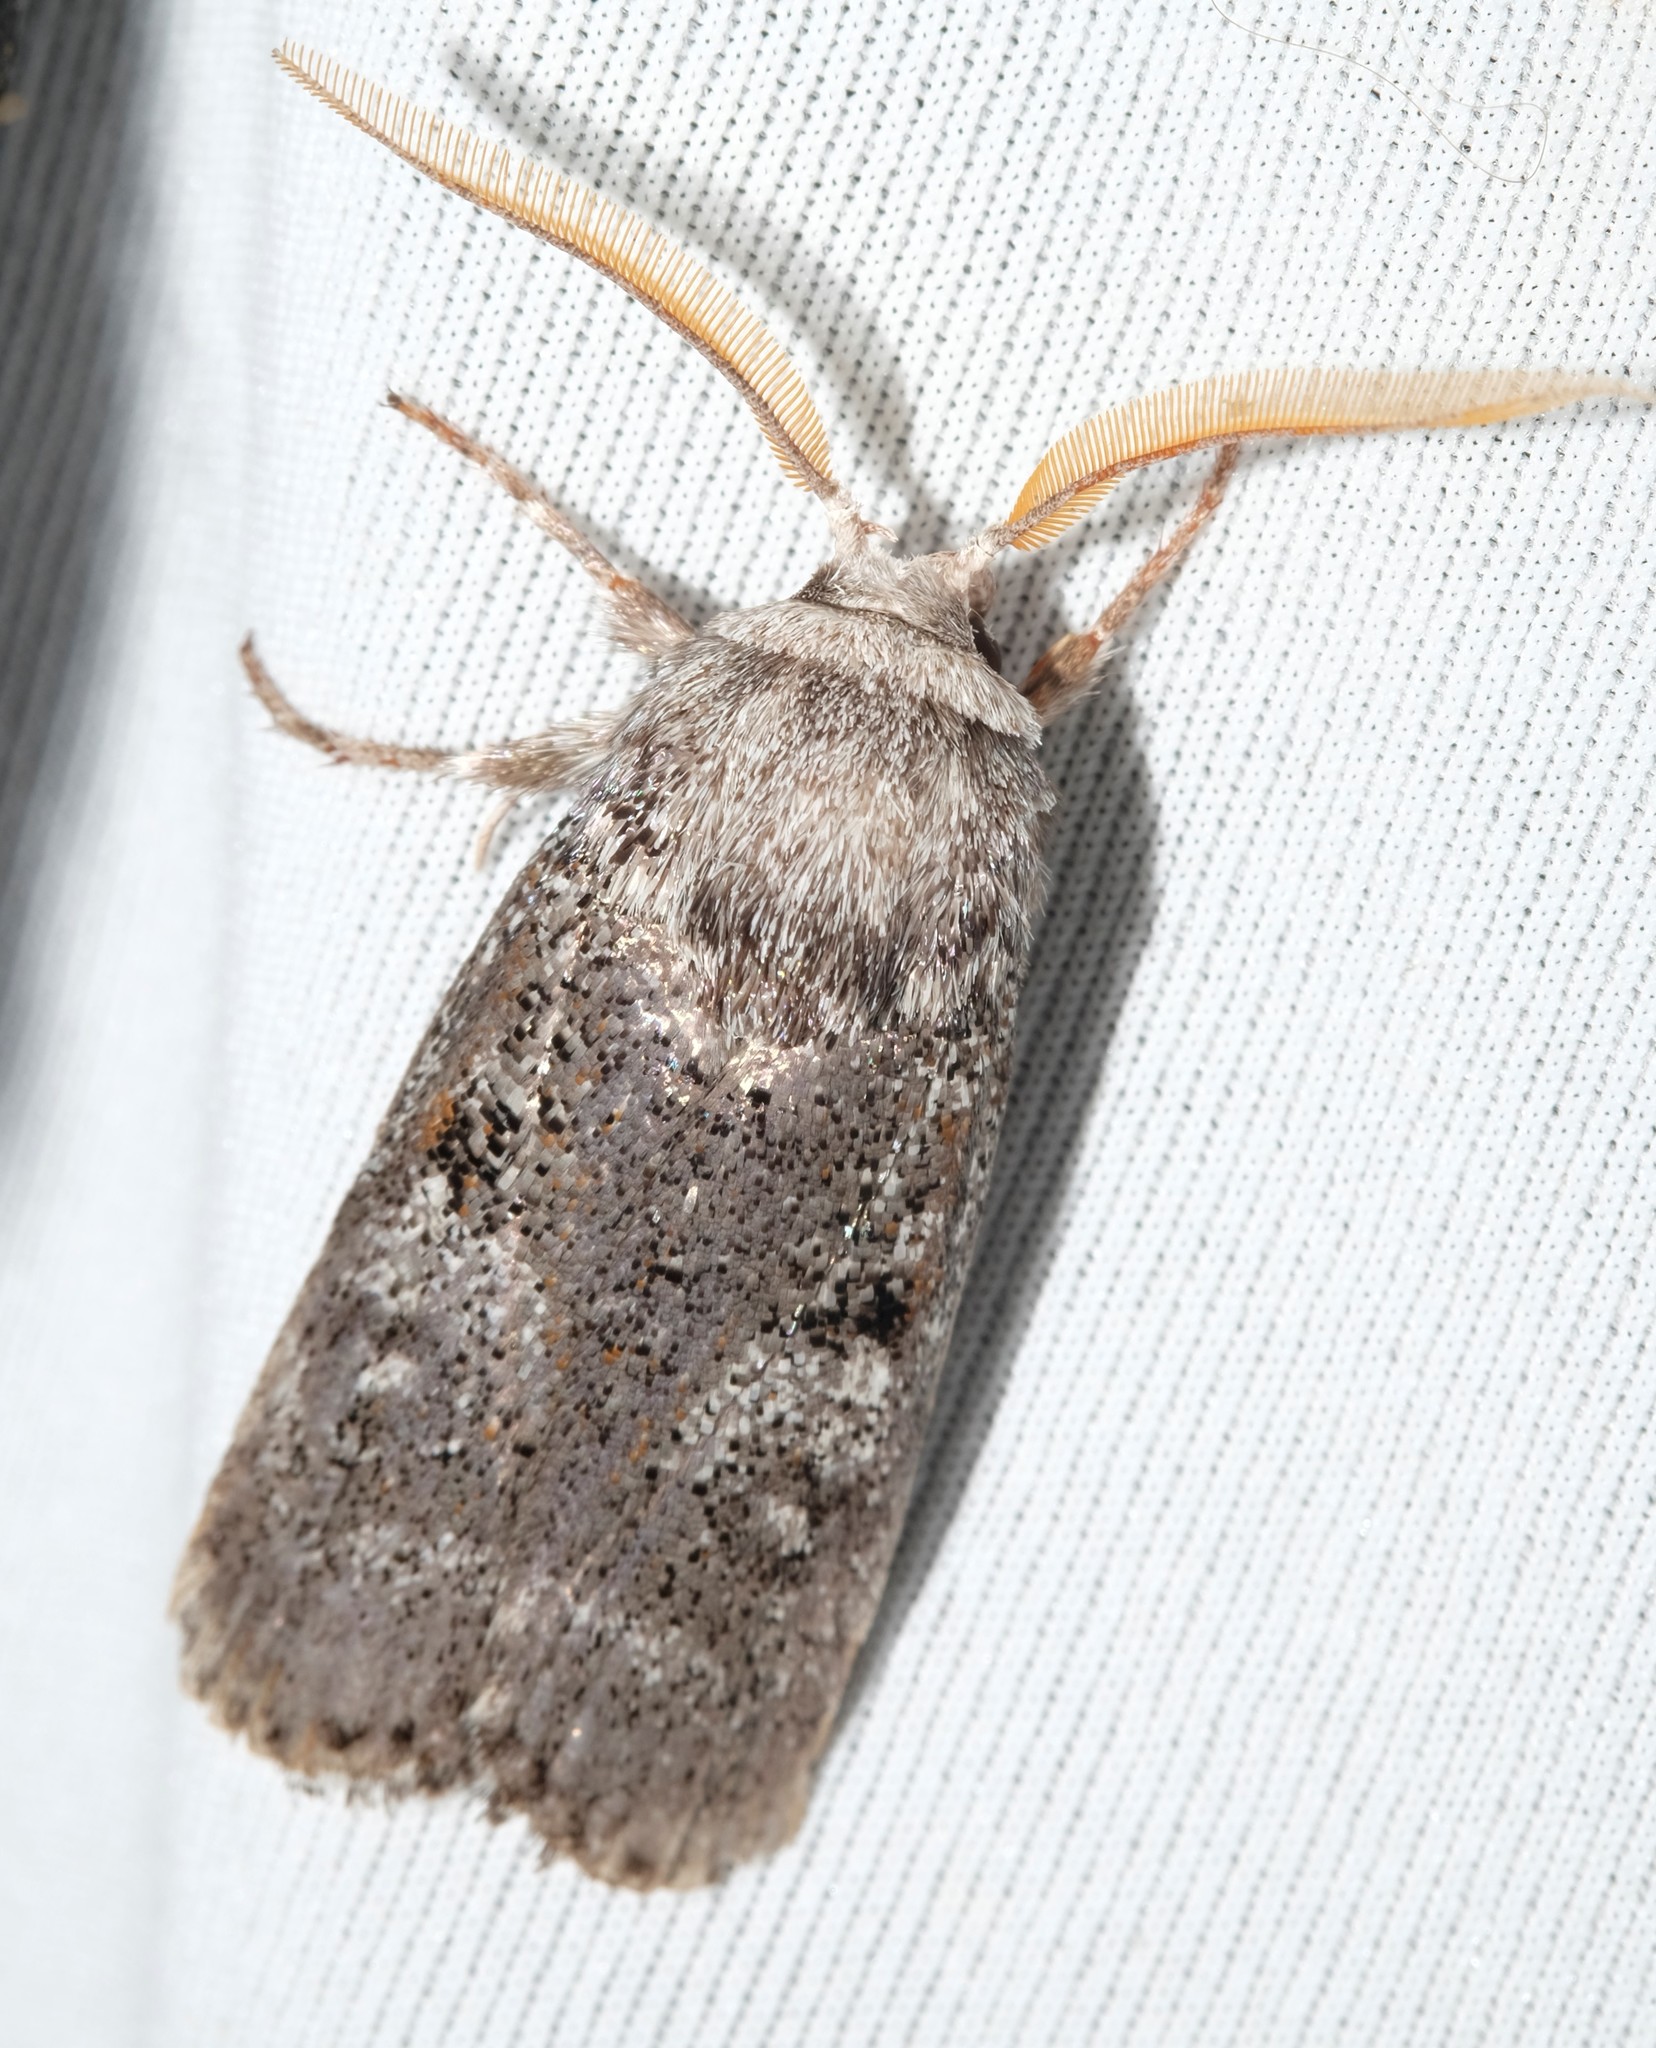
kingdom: Animalia
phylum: Arthropoda
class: Insecta
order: Lepidoptera
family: Xyloryctidae
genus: Cryptophasa
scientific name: Cryptophasa irrorata
